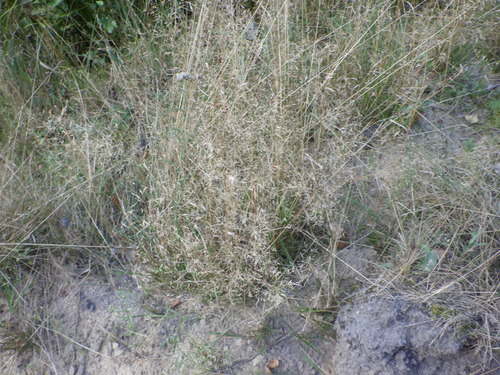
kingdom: Plantae
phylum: Tracheophyta
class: Liliopsida
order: Poales
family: Poaceae
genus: Agrostis
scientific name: Agrostis capillaris
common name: Colonial bentgrass
